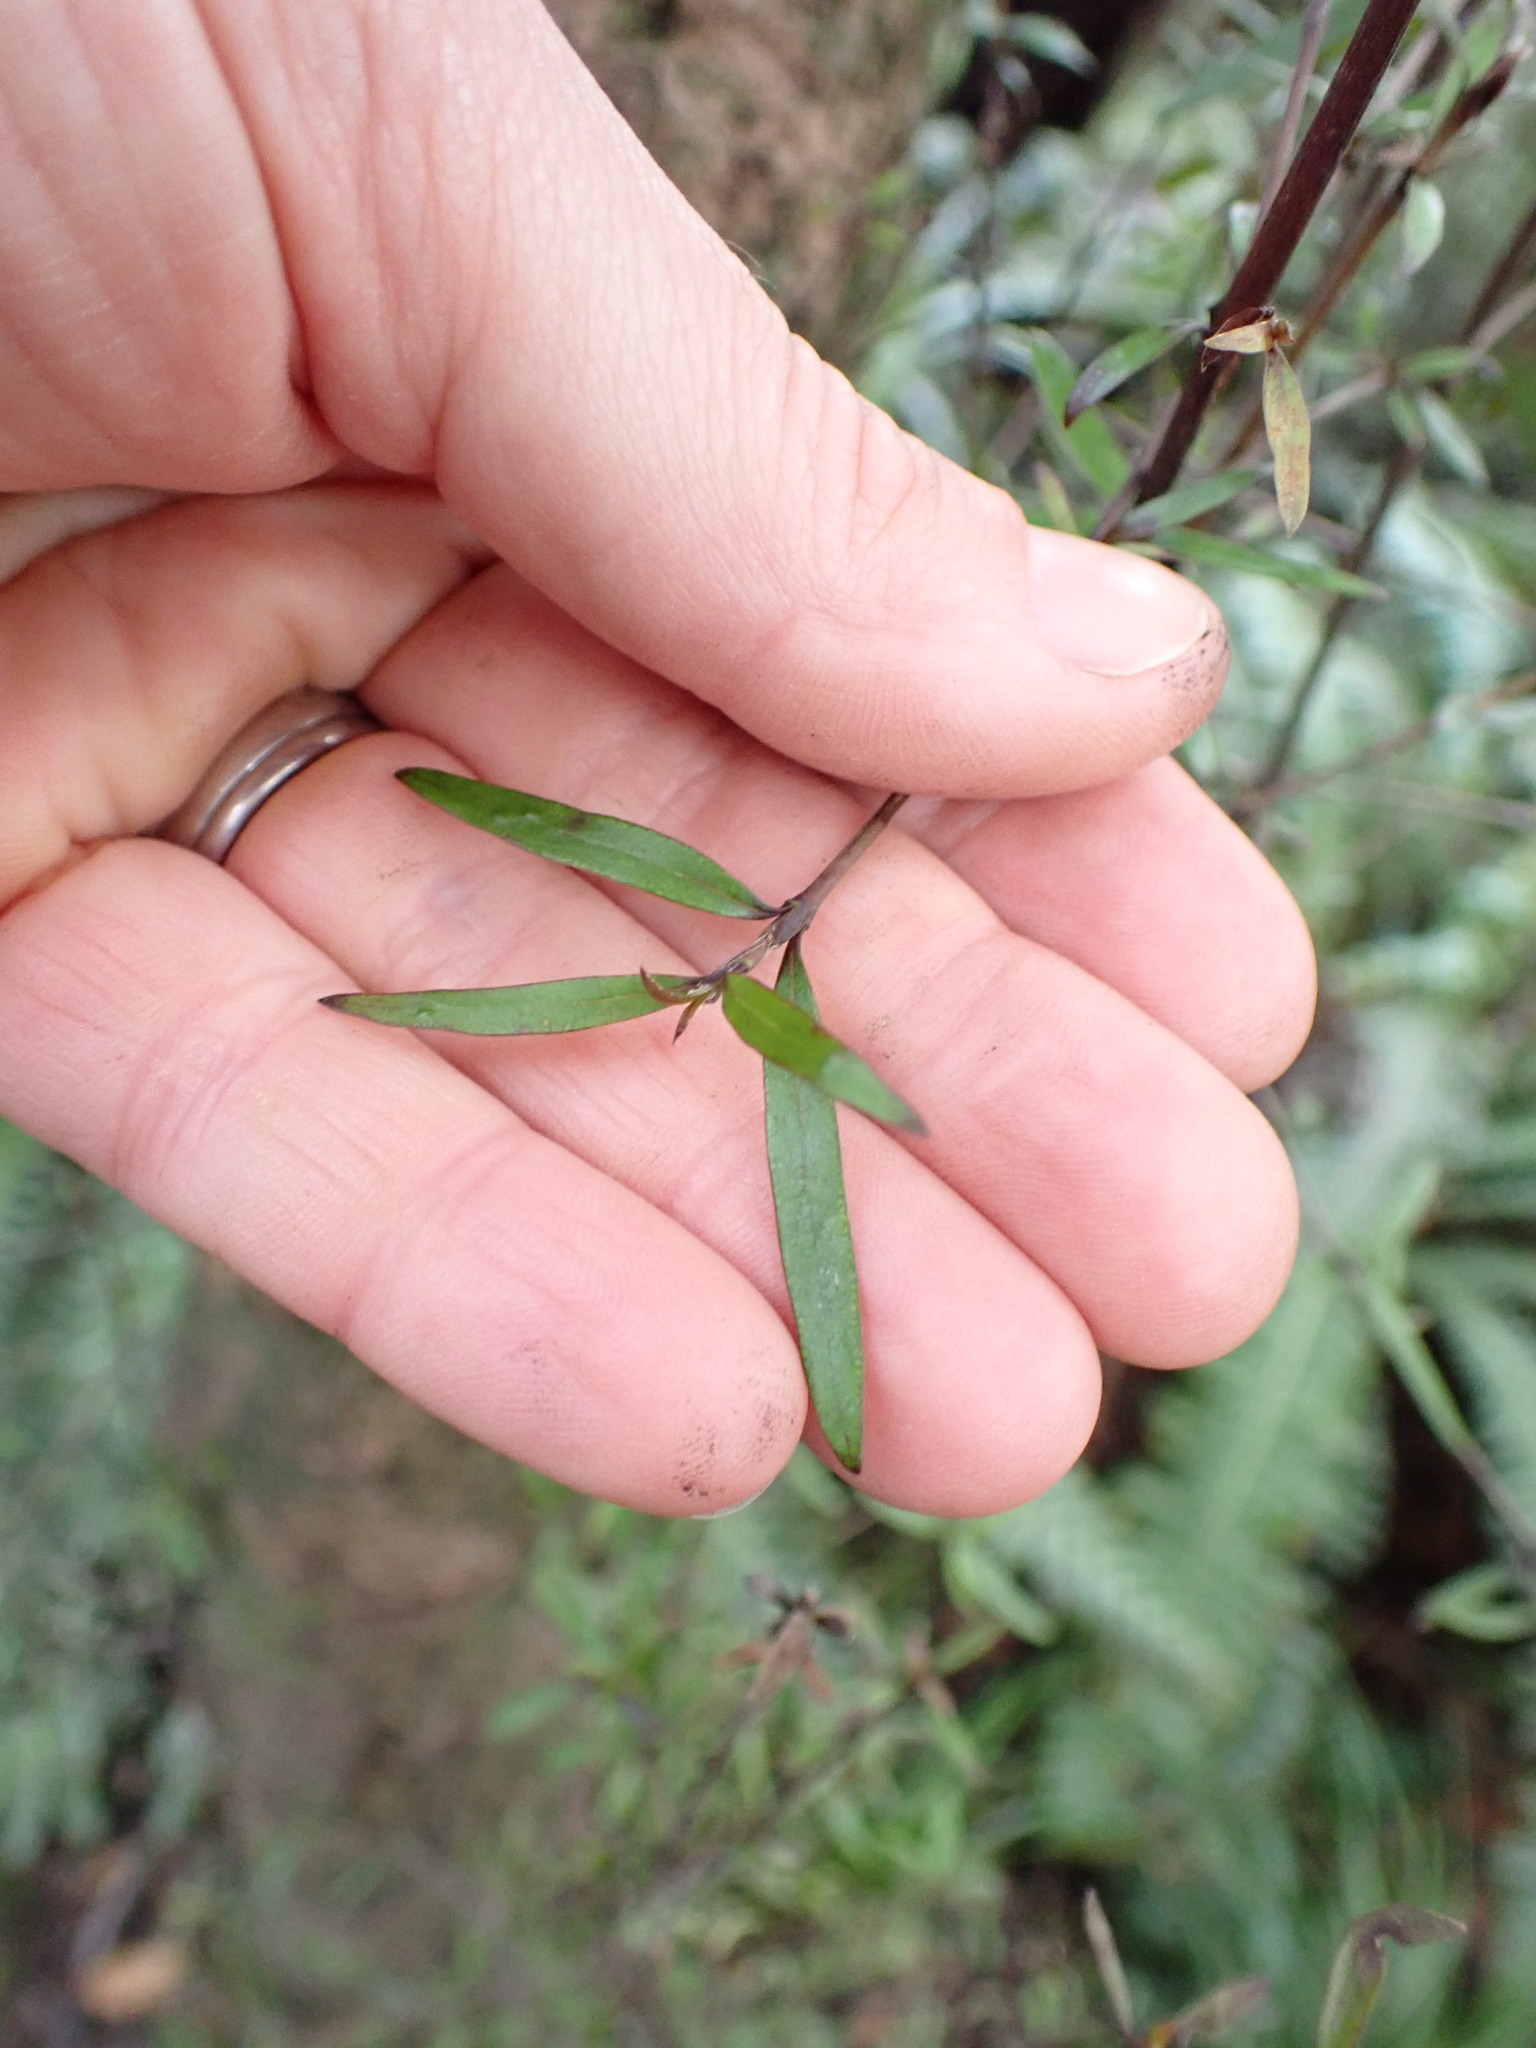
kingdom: Plantae
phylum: Tracheophyta
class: Magnoliopsida
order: Gentianales
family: Rubiaceae
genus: Coprosma
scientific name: Coprosma linariifolia
